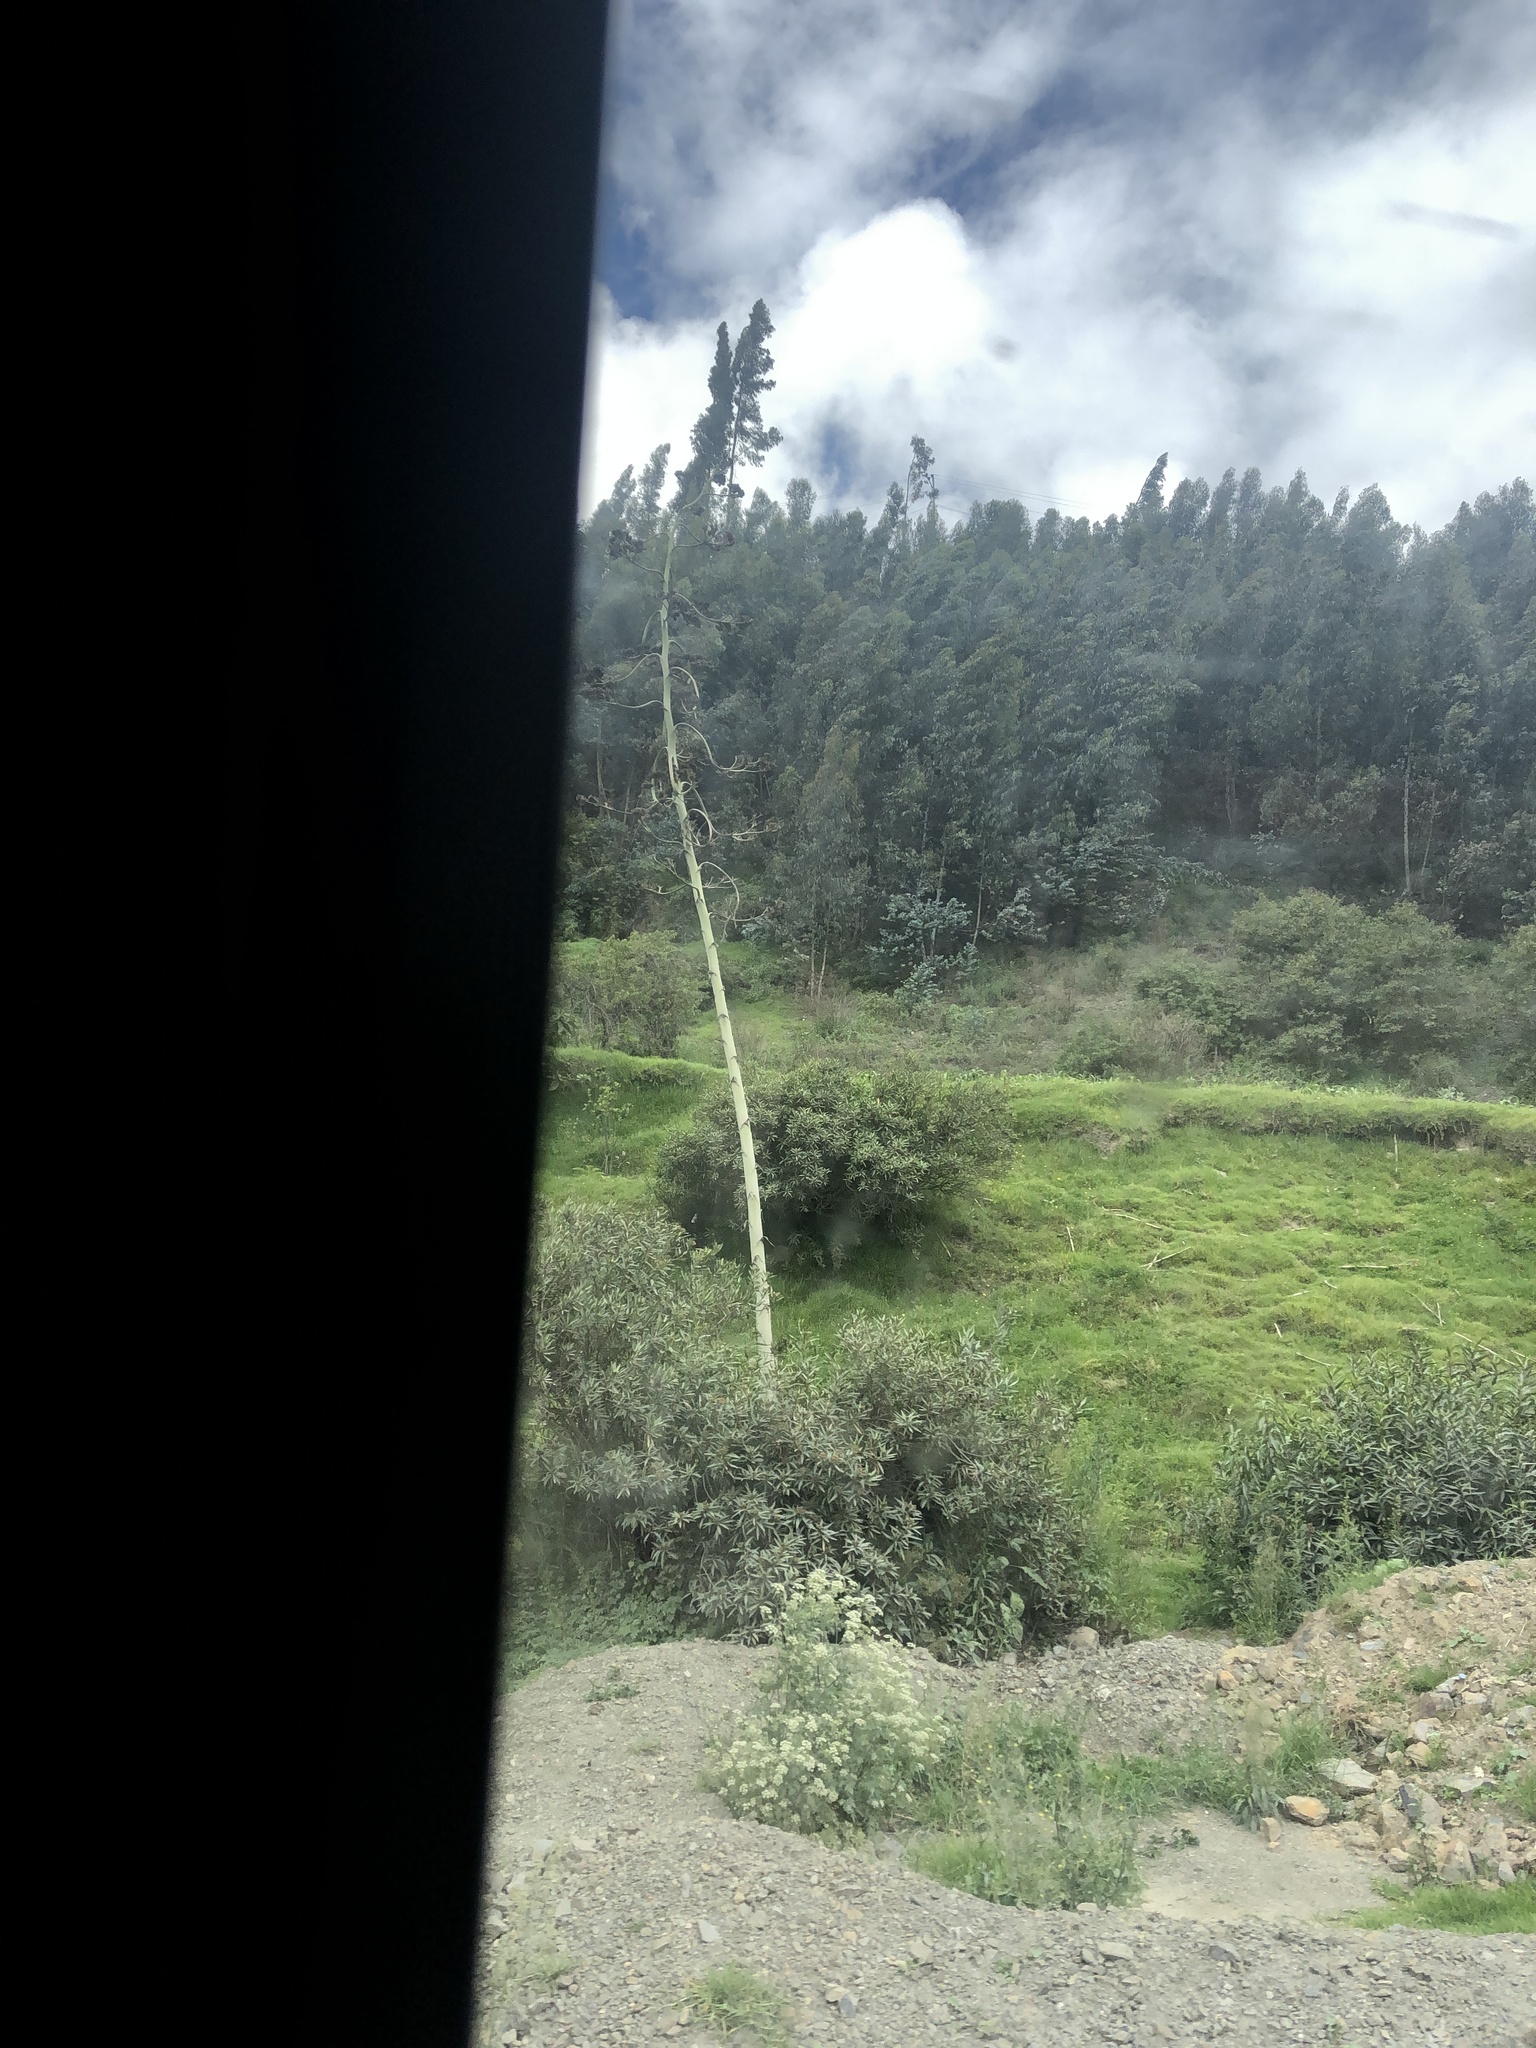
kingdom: Plantae
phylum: Tracheophyta
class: Liliopsida
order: Asparagales
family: Asparagaceae
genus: Agave
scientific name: Agave americana
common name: Centuryplant
